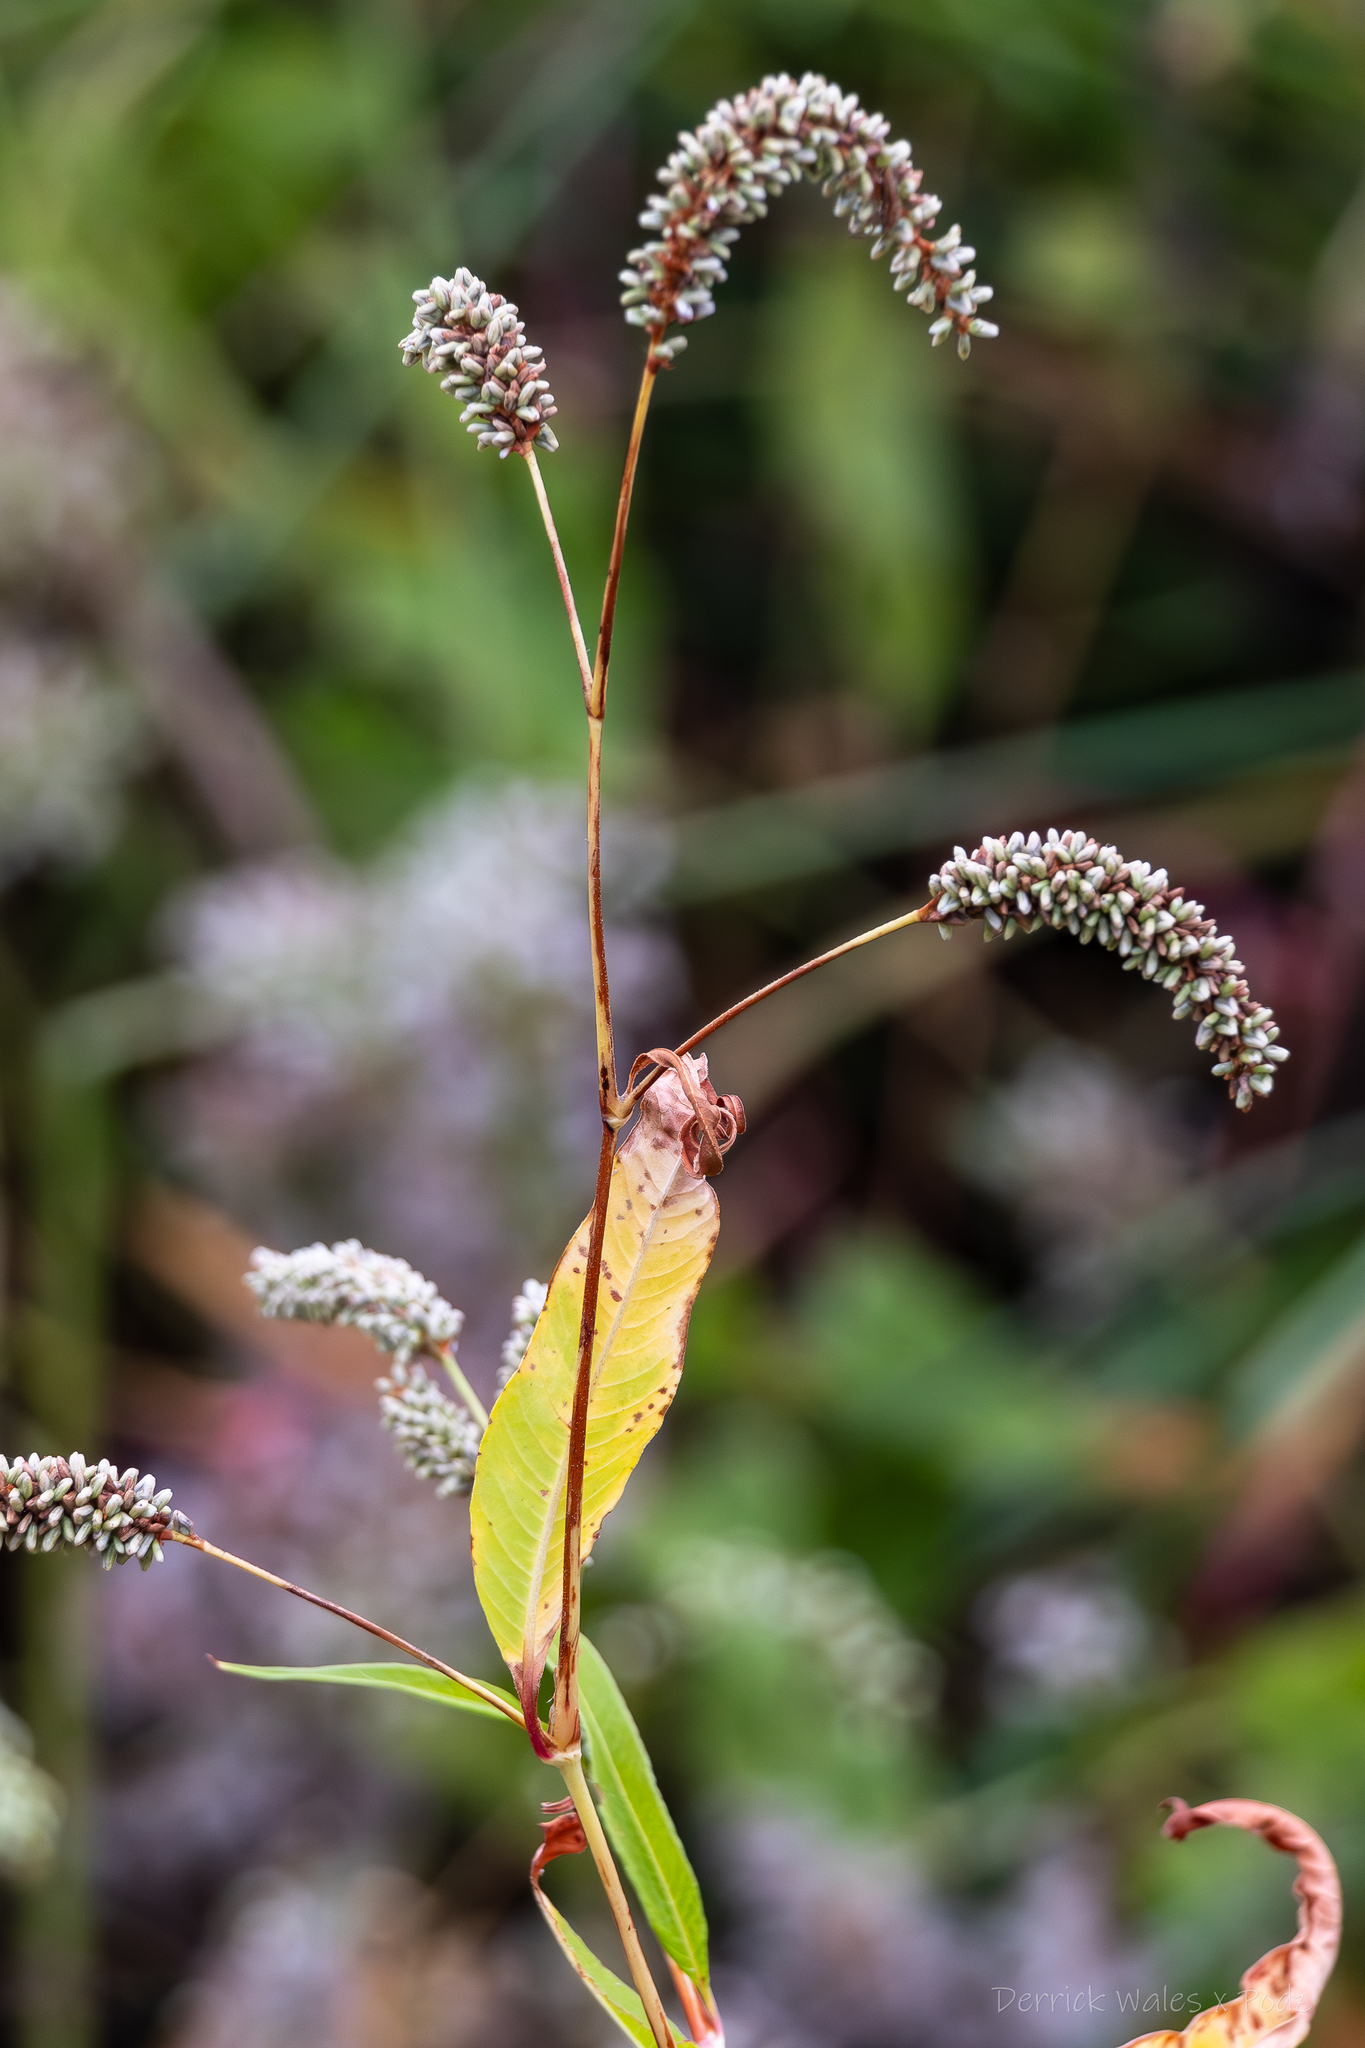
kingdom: Plantae
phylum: Tracheophyta
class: Magnoliopsida
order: Caryophyllales
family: Polygonaceae
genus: Persicaria
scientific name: Persicaria lapathifolia
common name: Curlytop knotweed
